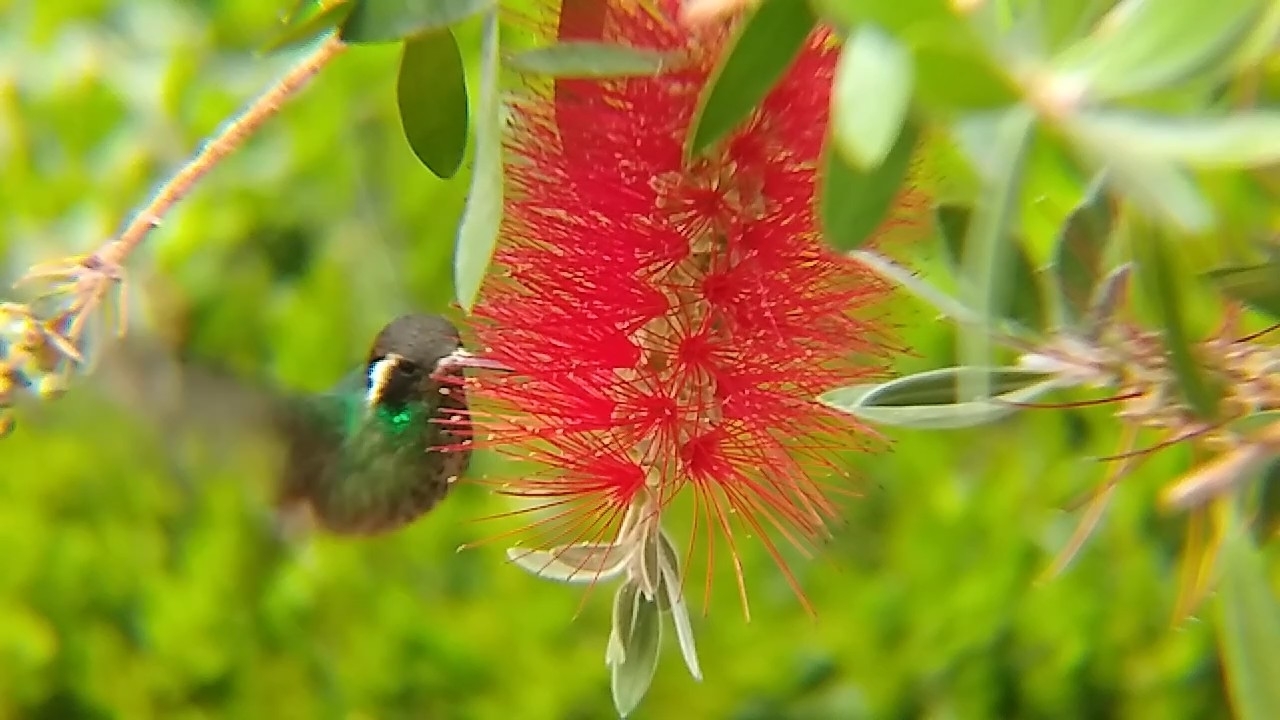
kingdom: Animalia
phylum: Chordata
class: Aves
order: Apodiformes
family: Trochilidae
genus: Basilinna
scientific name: Basilinna leucotis
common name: White-eared hummingbird
